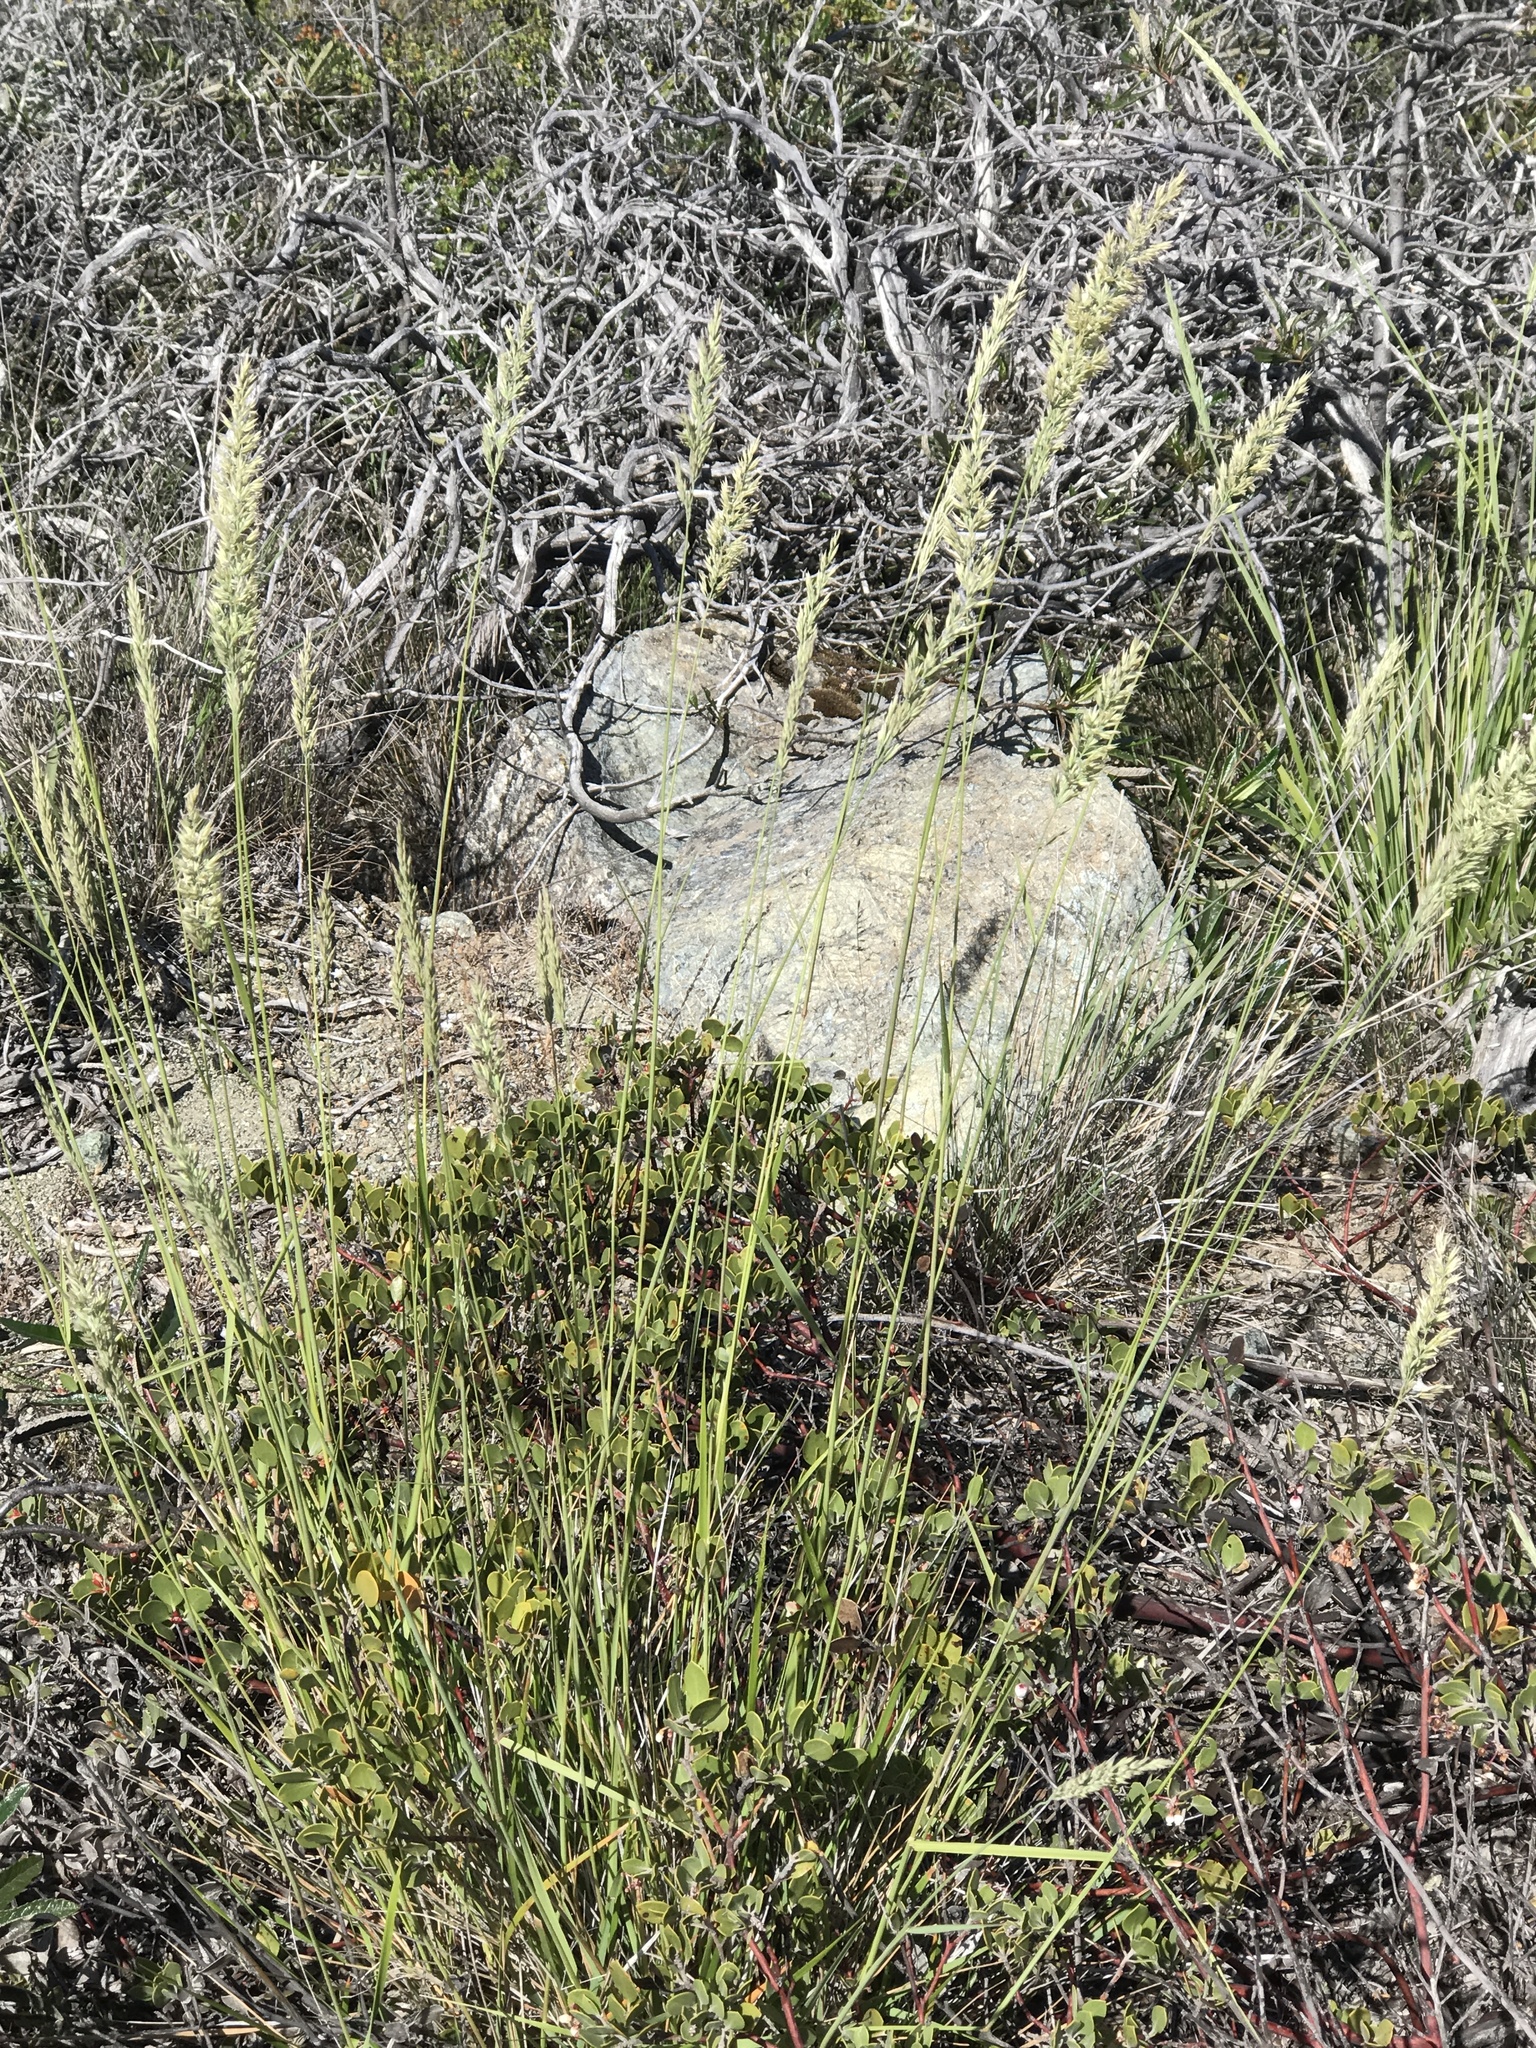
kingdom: Plantae
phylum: Tracheophyta
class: Liliopsida
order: Poales
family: Poaceae
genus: Koeleria
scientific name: Koeleria macrantha
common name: Crested hair-grass
